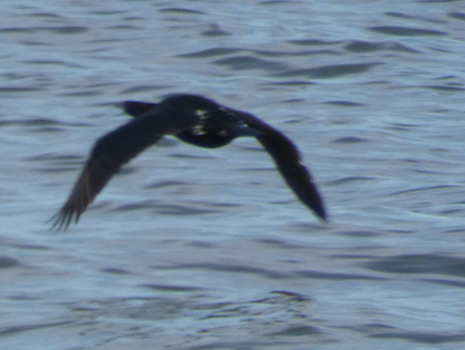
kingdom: Animalia
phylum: Chordata
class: Aves
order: Suliformes
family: Phalacrocoracidae
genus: Phalacrocorax
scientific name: Phalacrocorax pelagicus
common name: Pelagic cormorant
